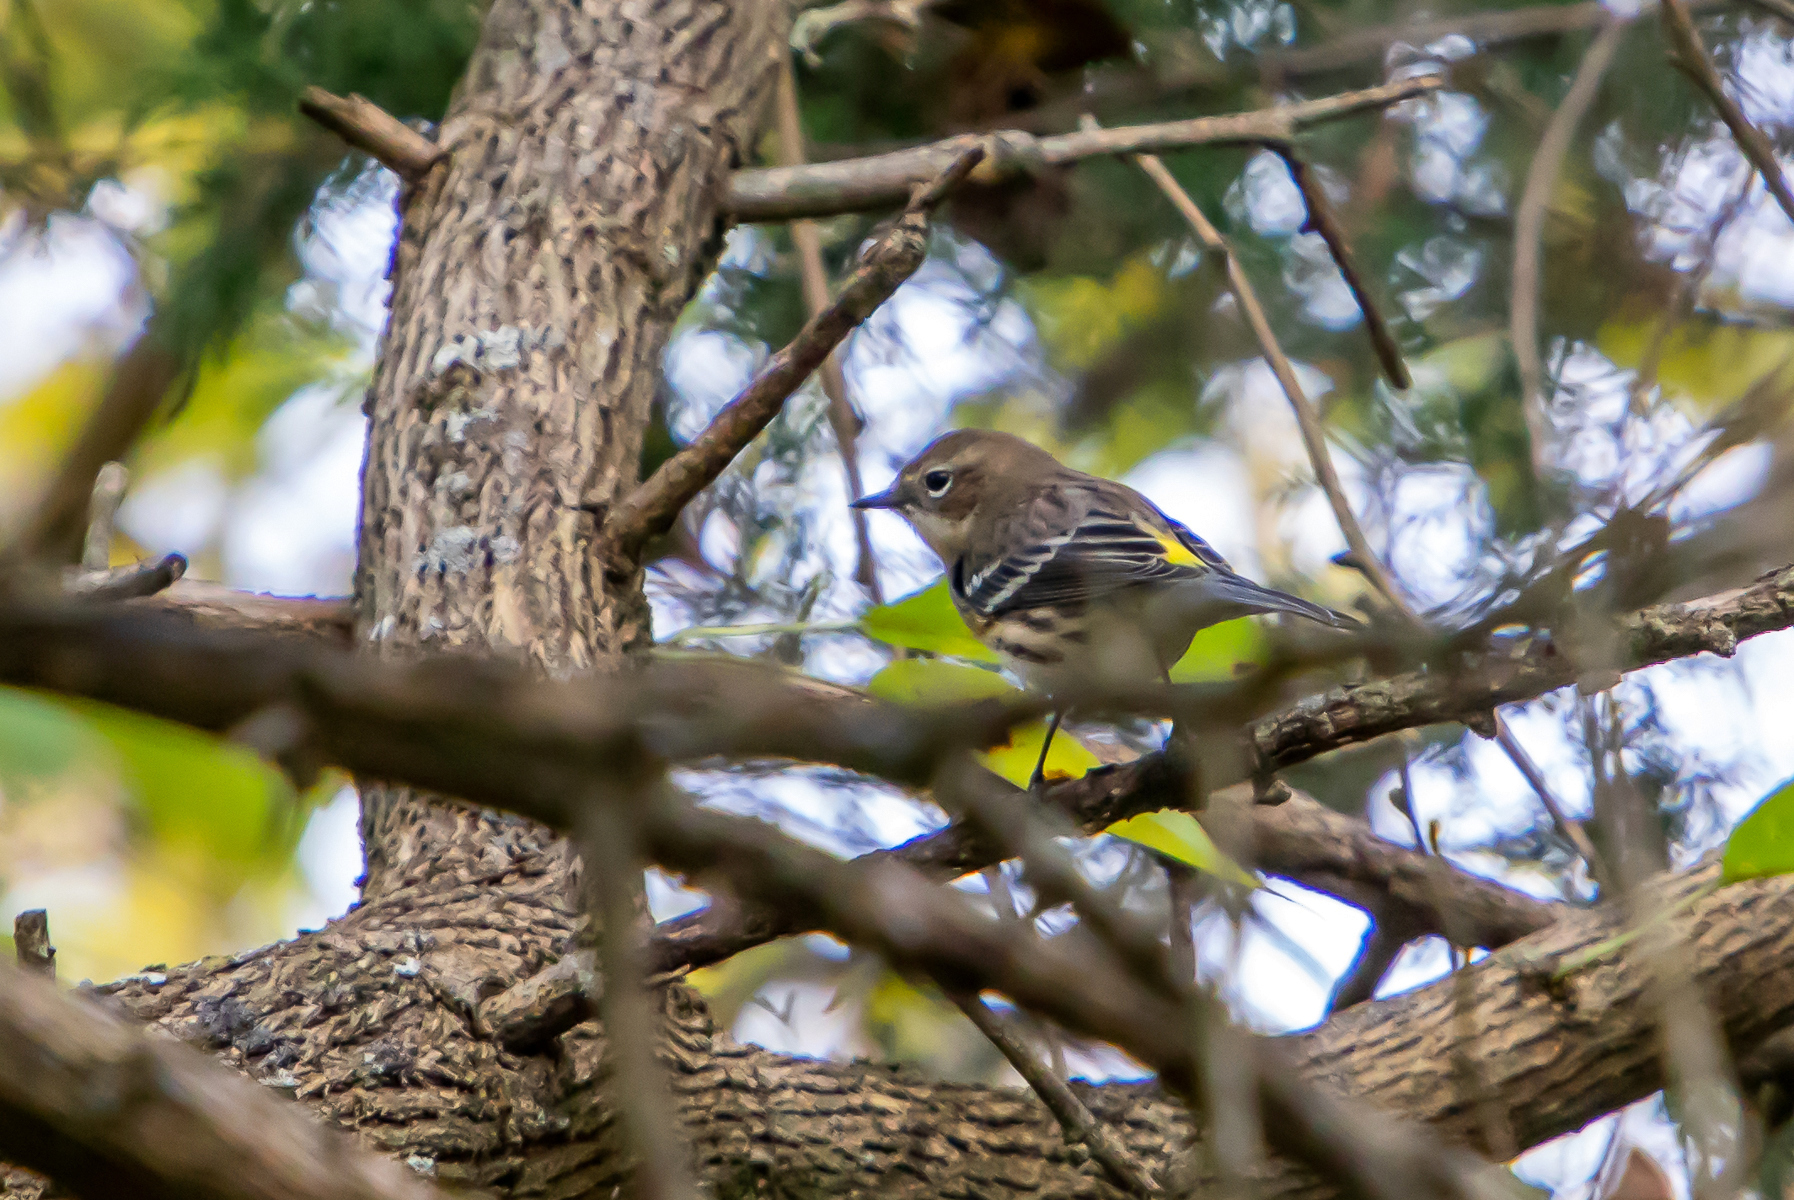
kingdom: Animalia
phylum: Chordata
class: Aves
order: Passeriformes
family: Parulidae
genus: Setophaga
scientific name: Setophaga coronata
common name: Myrtle warbler
